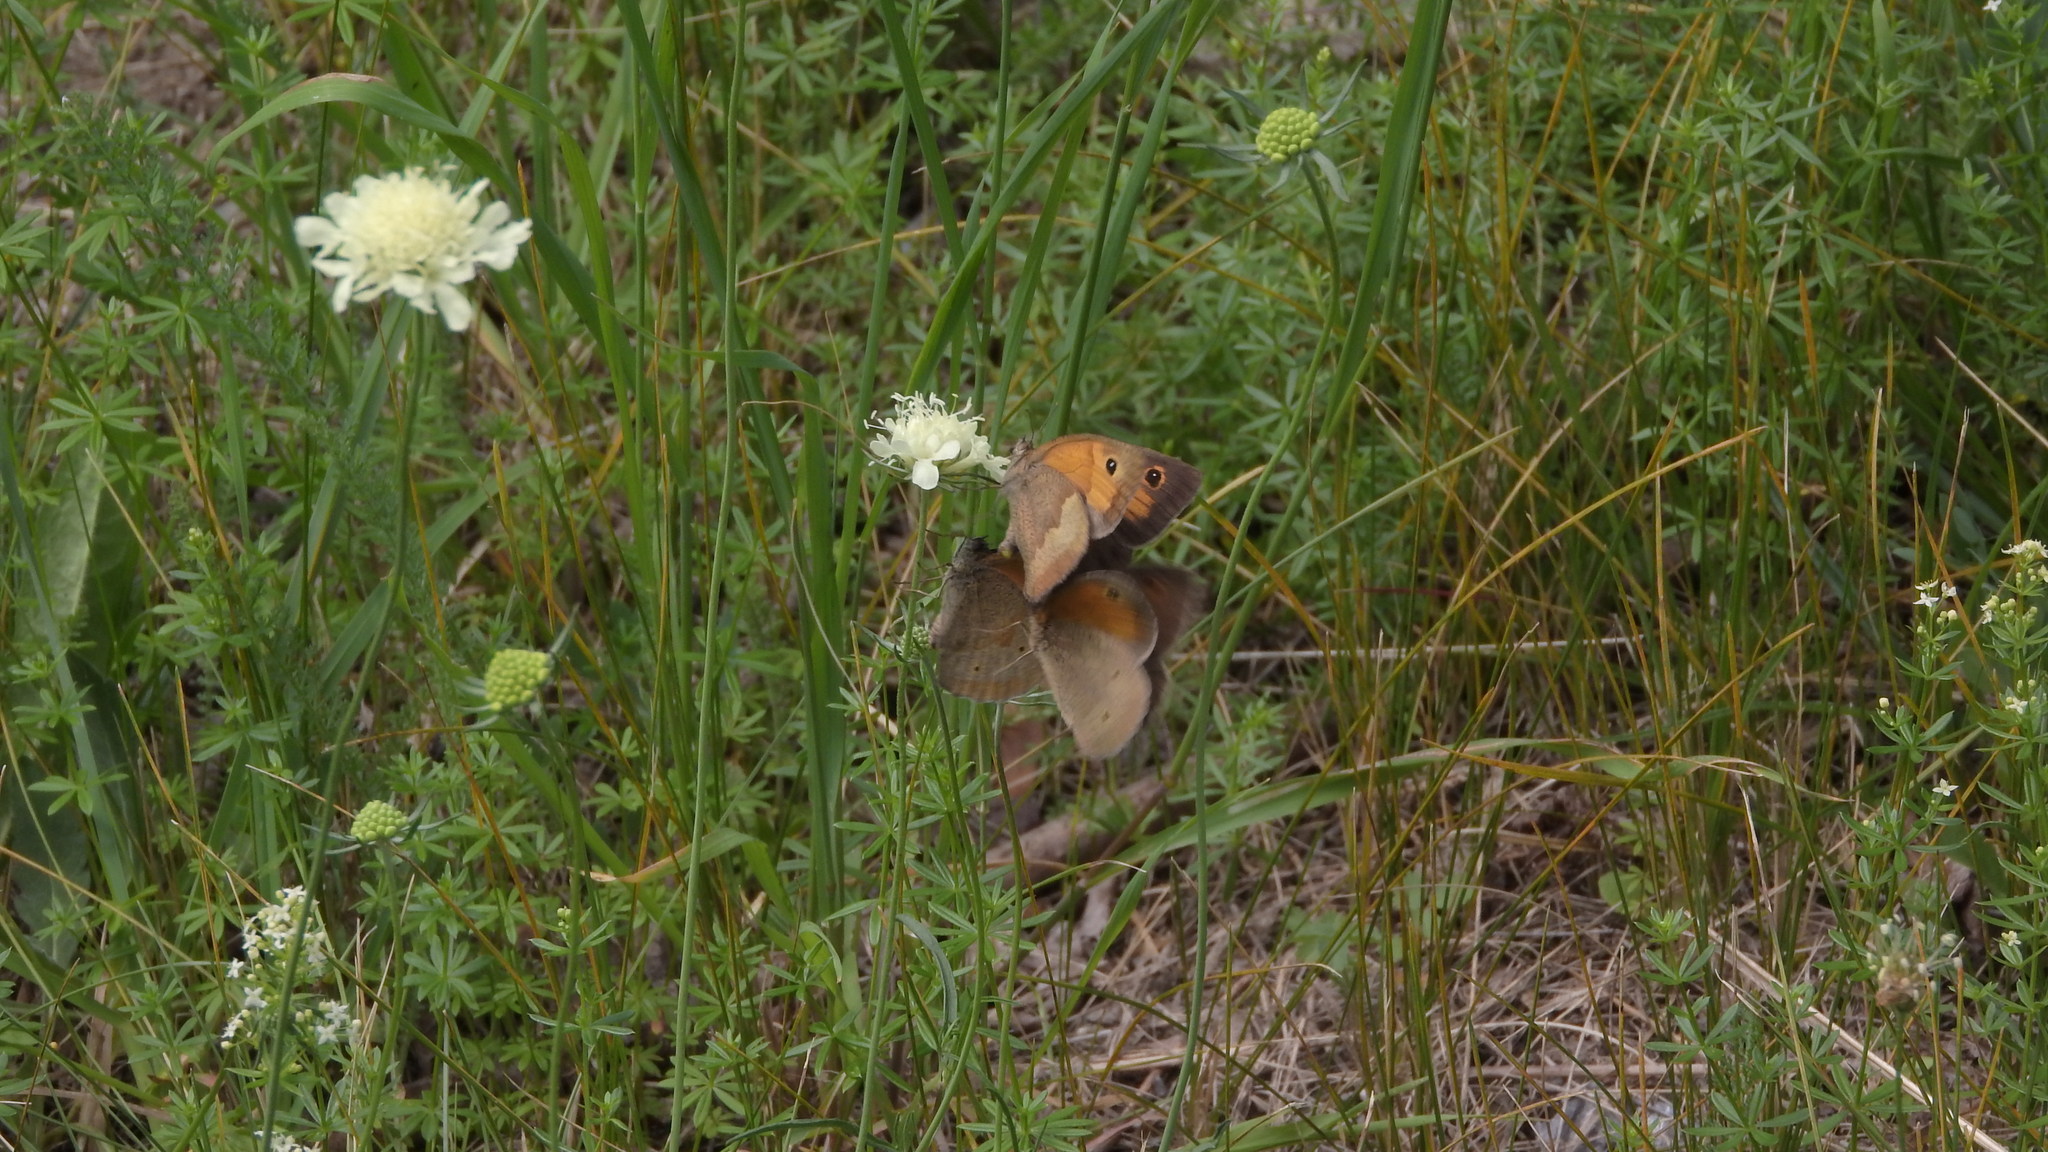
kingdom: Animalia
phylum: Arthropoda
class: Insecta
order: Lepidoptera
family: Nymphalidae
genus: Maniola
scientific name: Maniola jurtina
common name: Meadow brown
